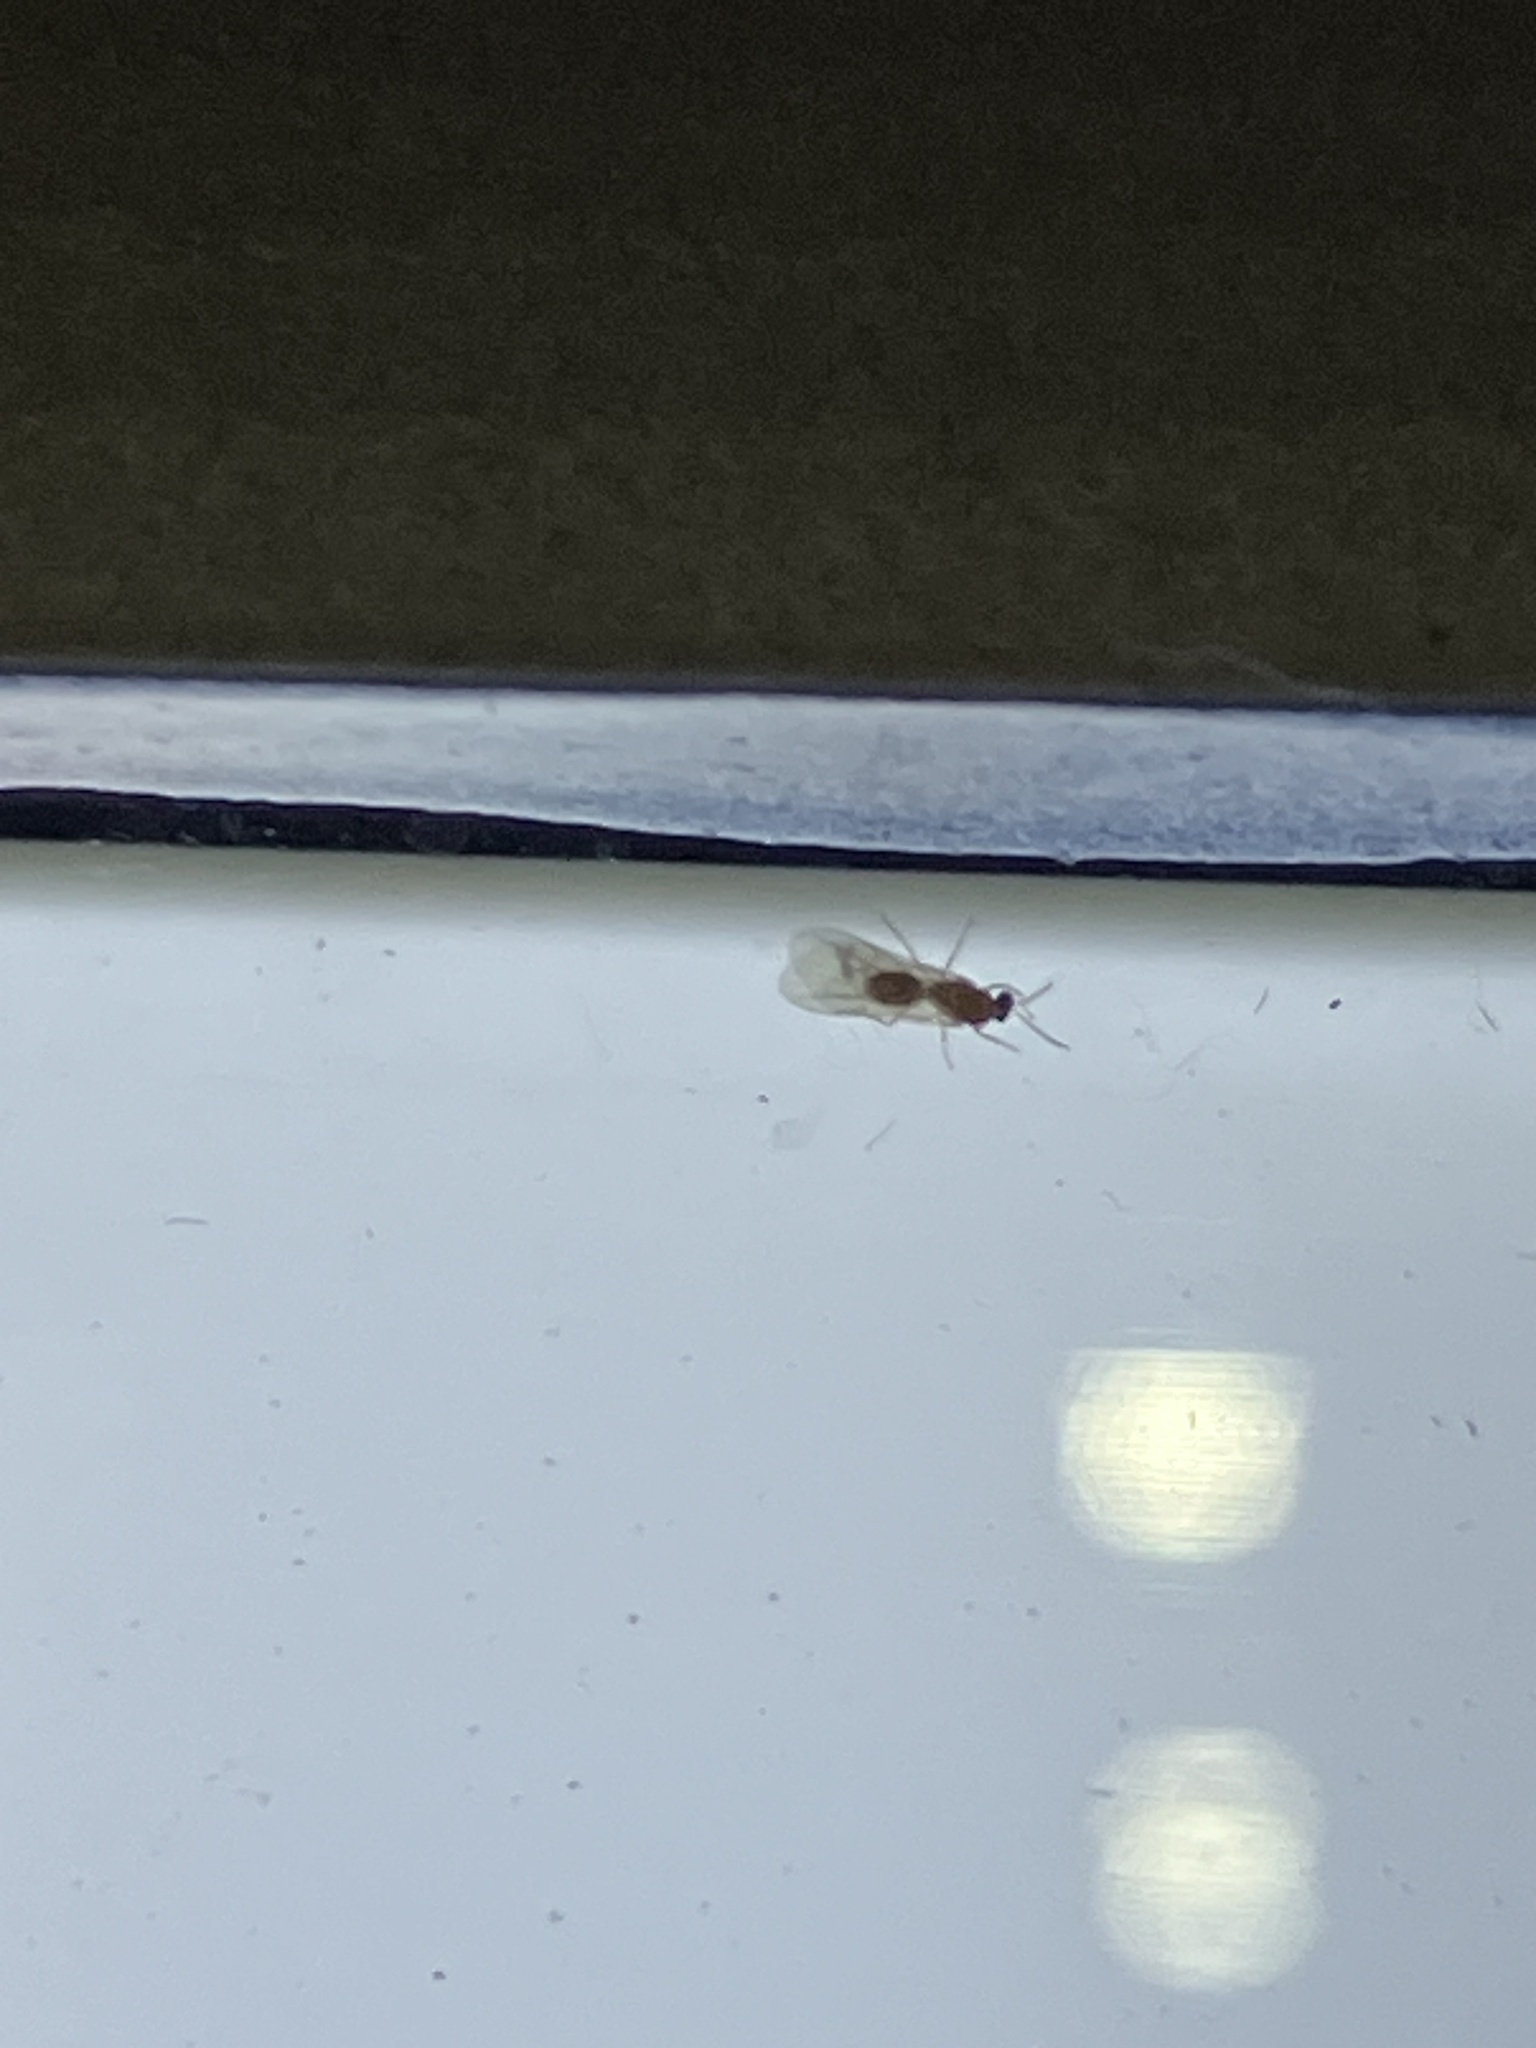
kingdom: Animalia
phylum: Arthropoda
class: Insecta
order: Hymenoptera
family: Formicidae
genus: Pheidole
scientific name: Pheidole
